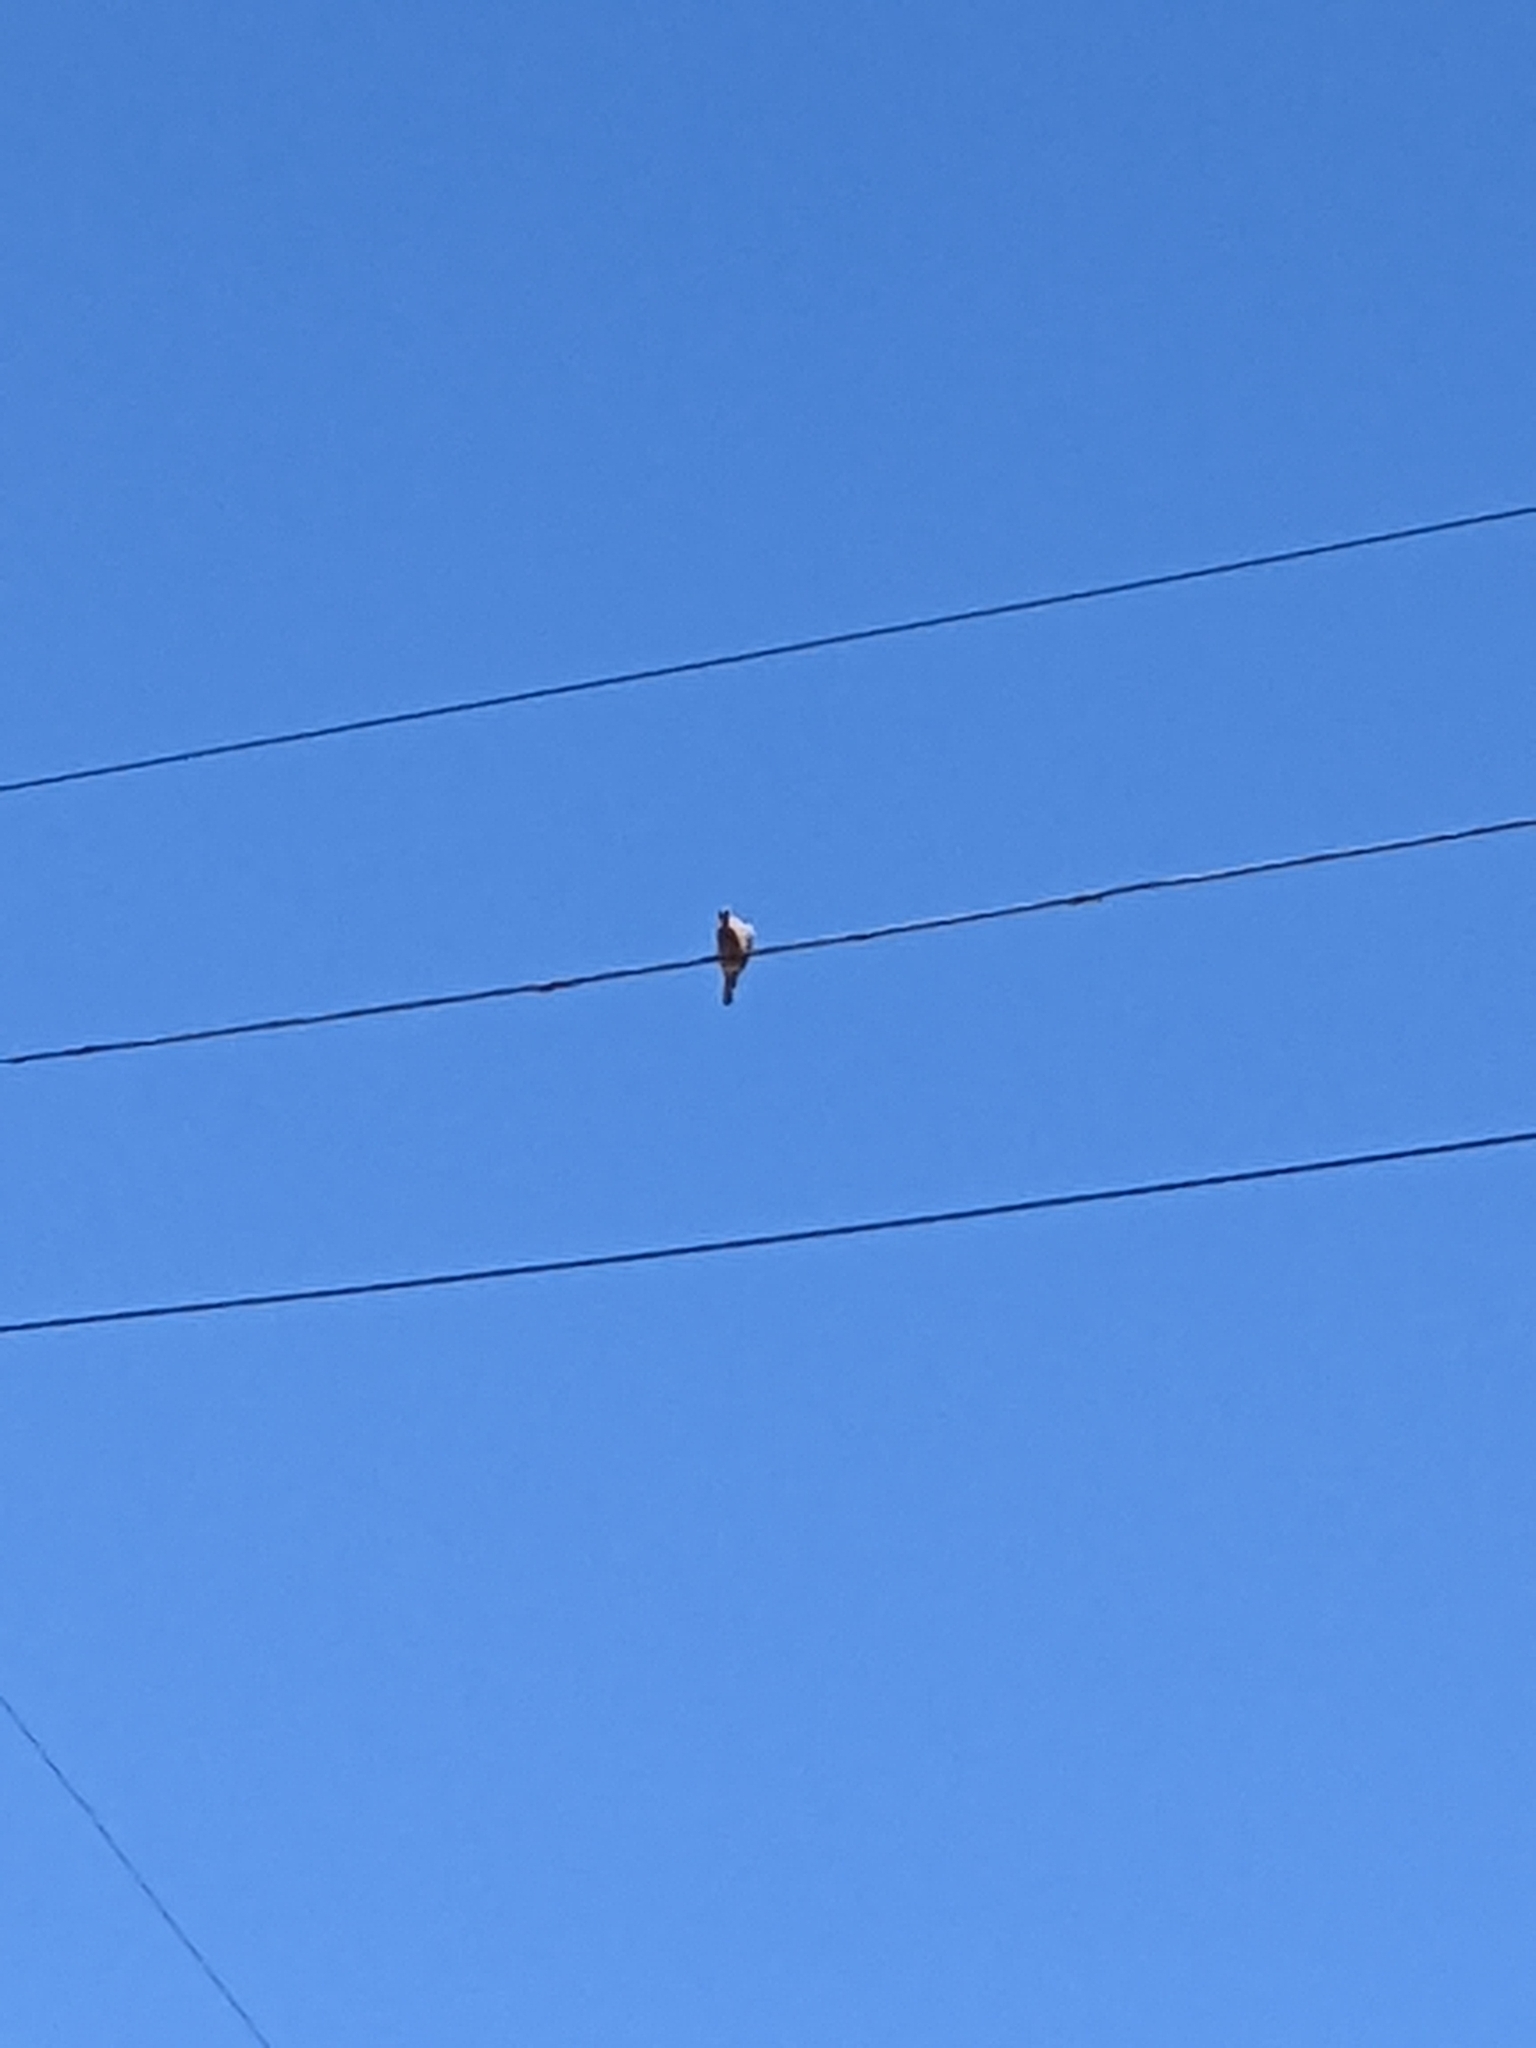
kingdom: Animalia
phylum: Chordata
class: Aves
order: Columbiformes
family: Columbidae
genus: Zenaida
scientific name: Zenaida macroura
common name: Mourning dove
